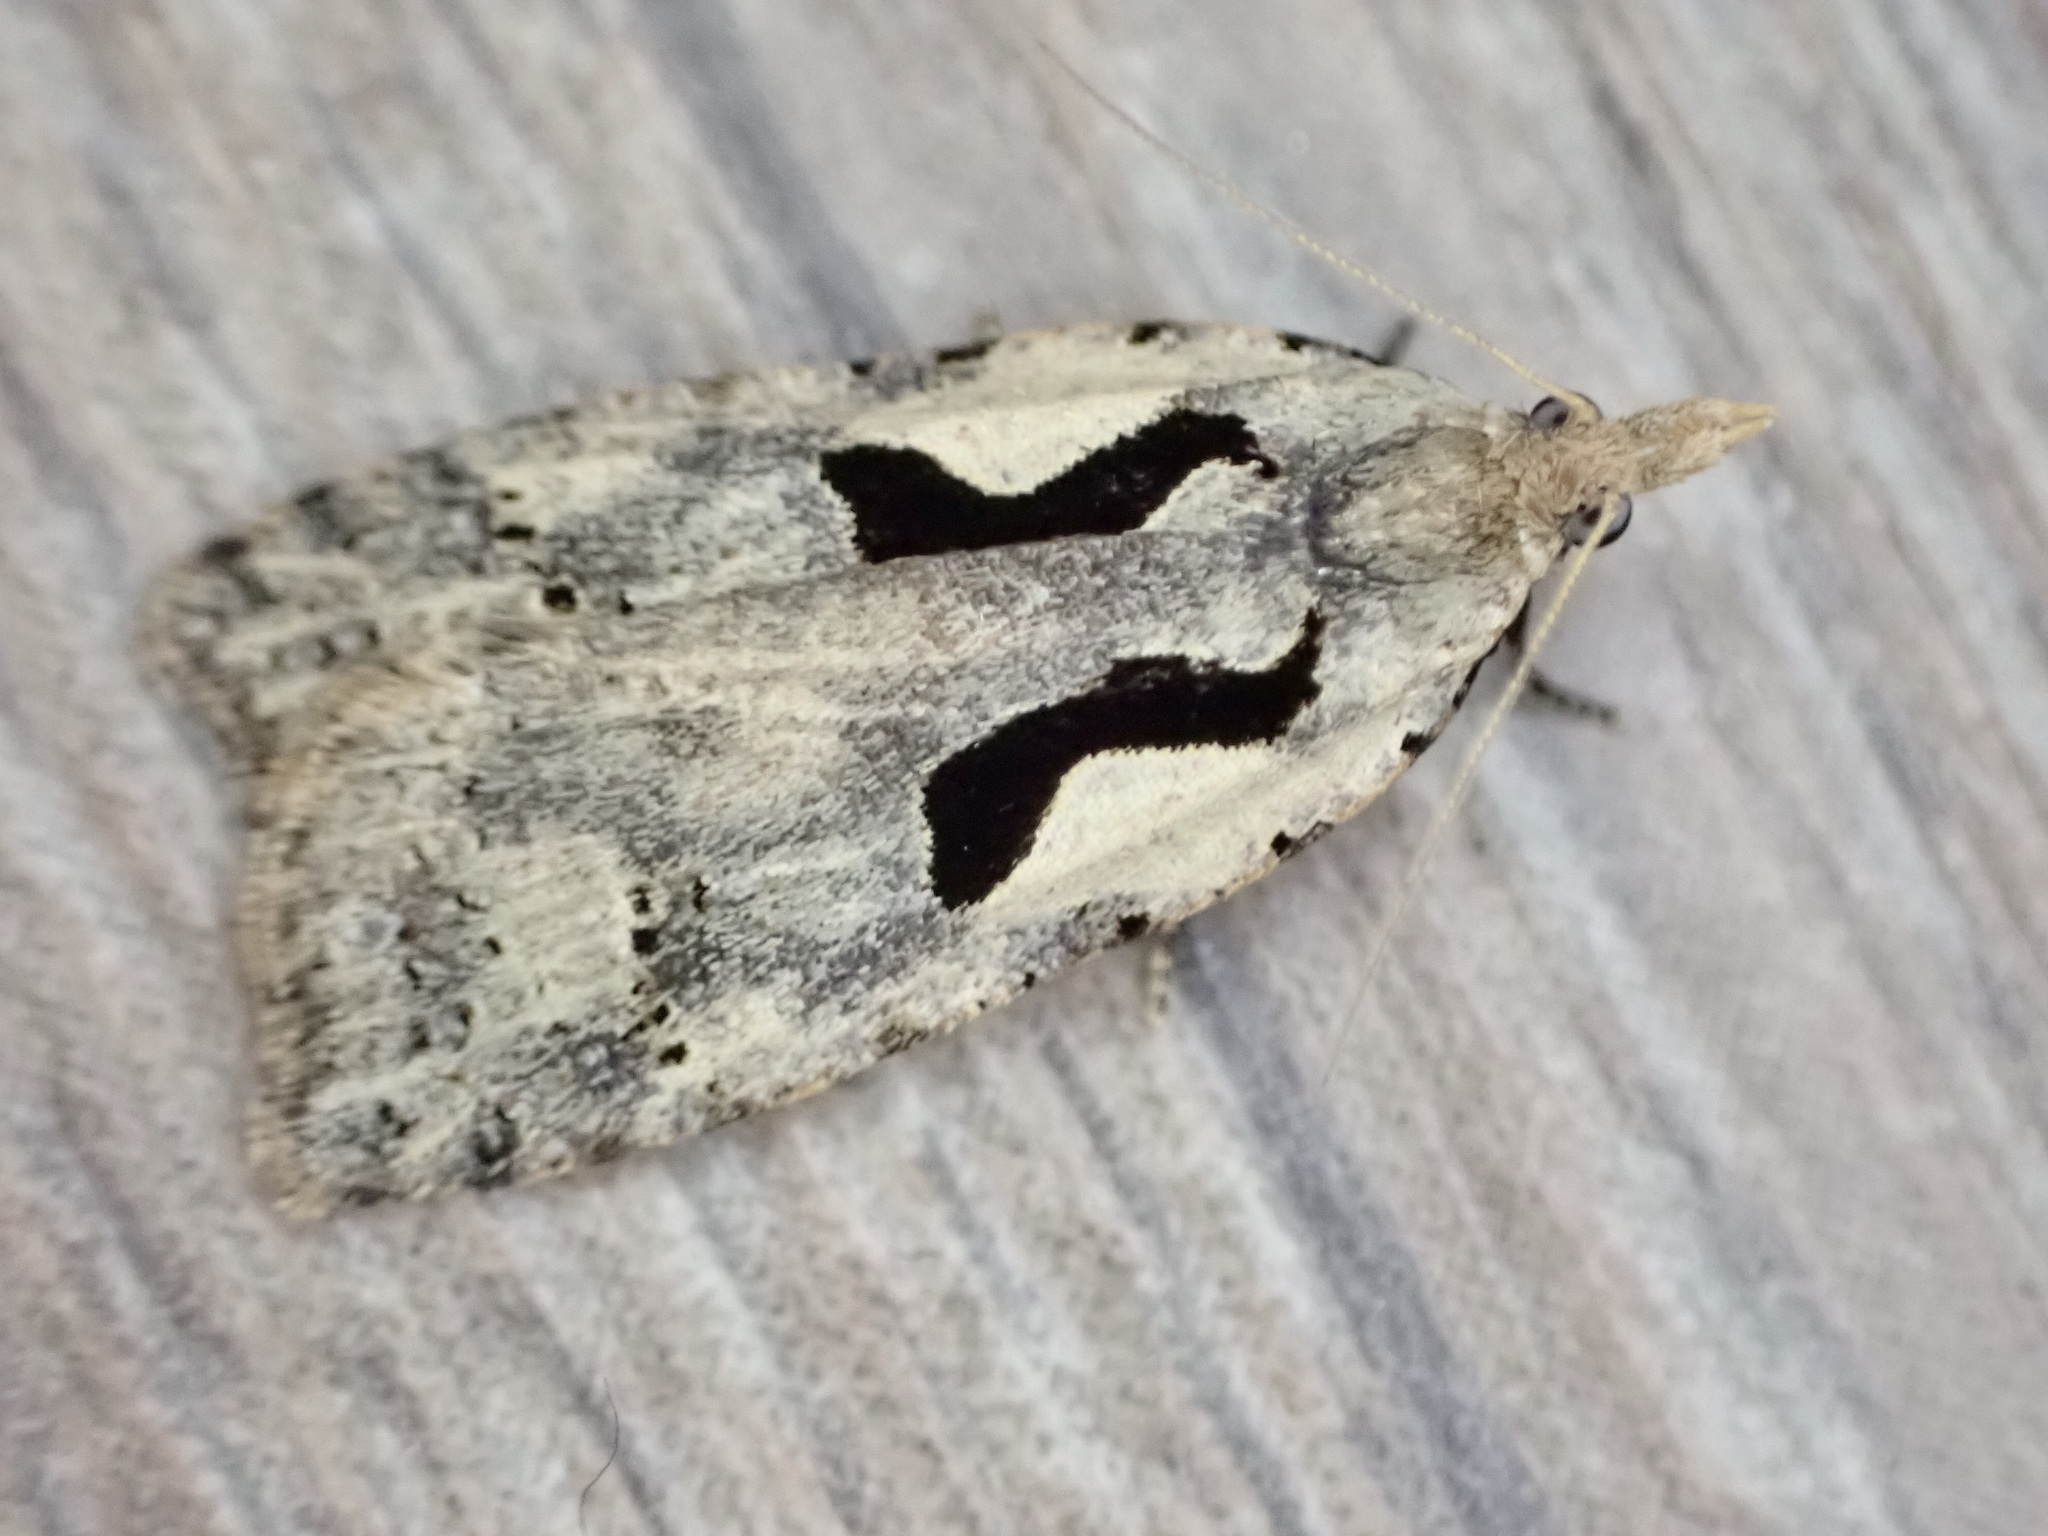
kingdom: Animalia
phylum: Arthropoda
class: Insecta
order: Lepidoptera
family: Tortricidae
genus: Cnephasia
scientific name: Cnephasia jactatana
